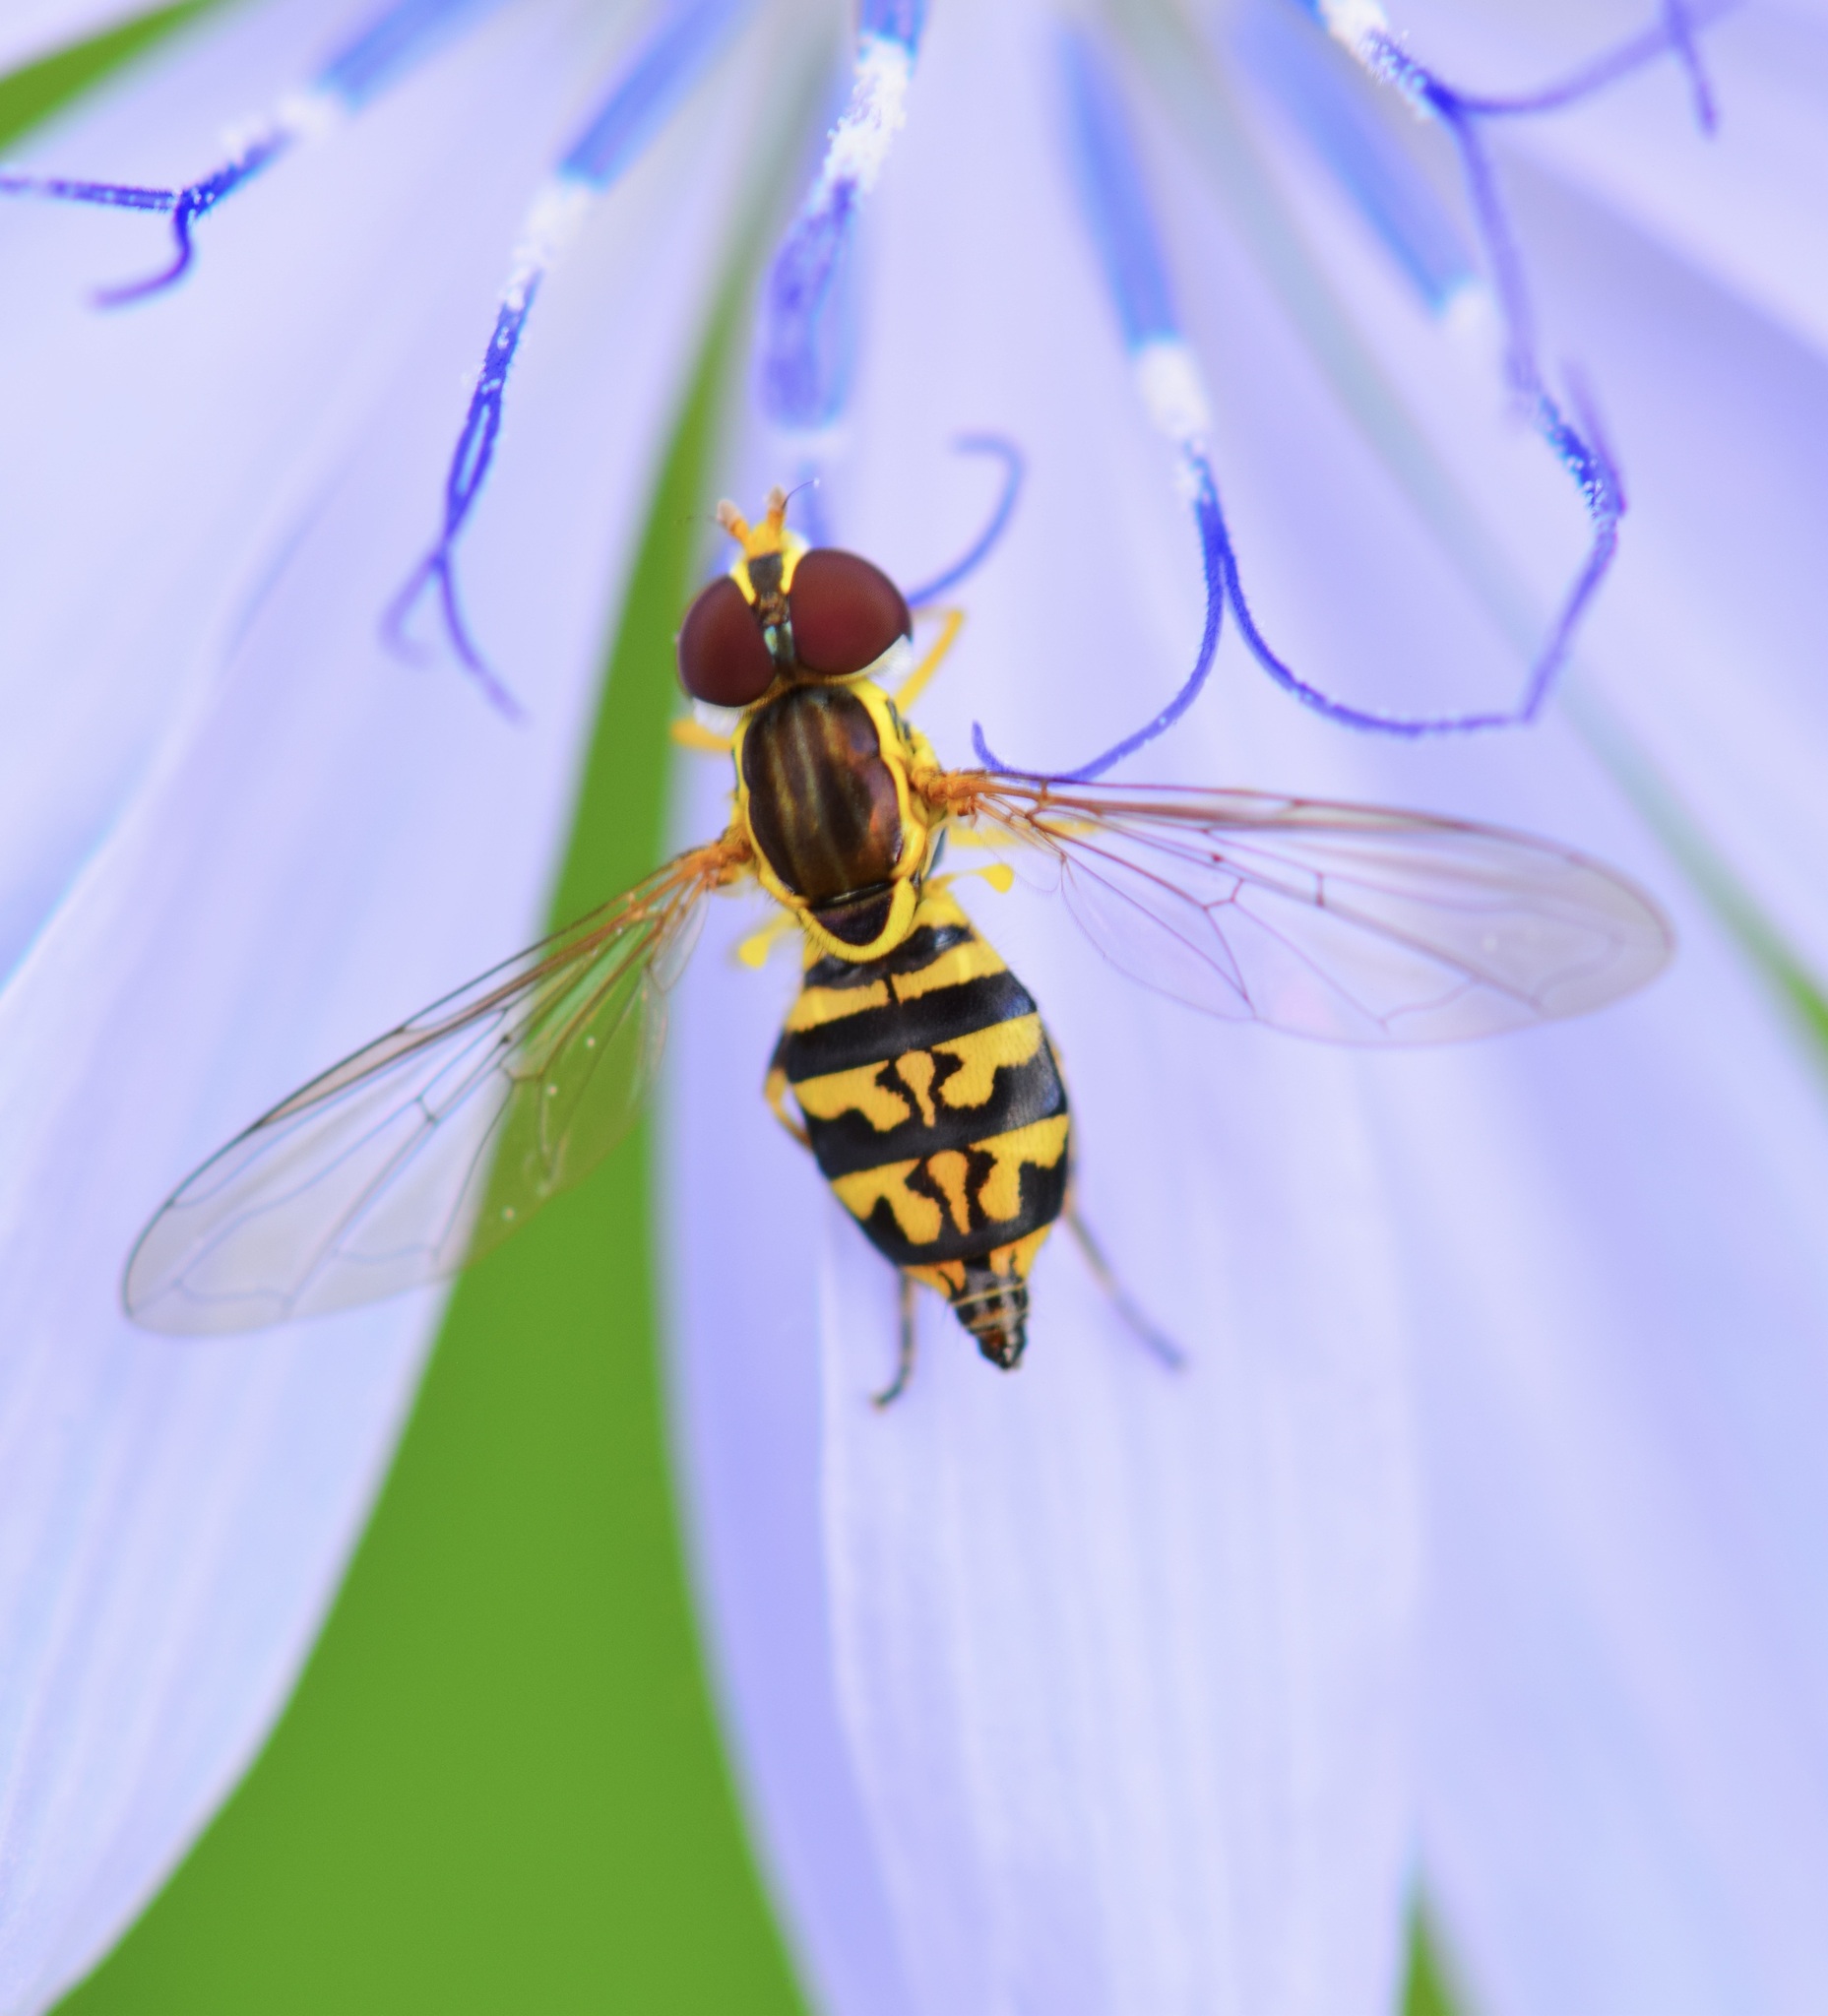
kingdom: Animalia
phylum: Arthropoda
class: Insecta
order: Diptera
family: Syrphidae
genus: Toxomerus
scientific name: Toxomerus geminatus
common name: Eastern calligrapher
